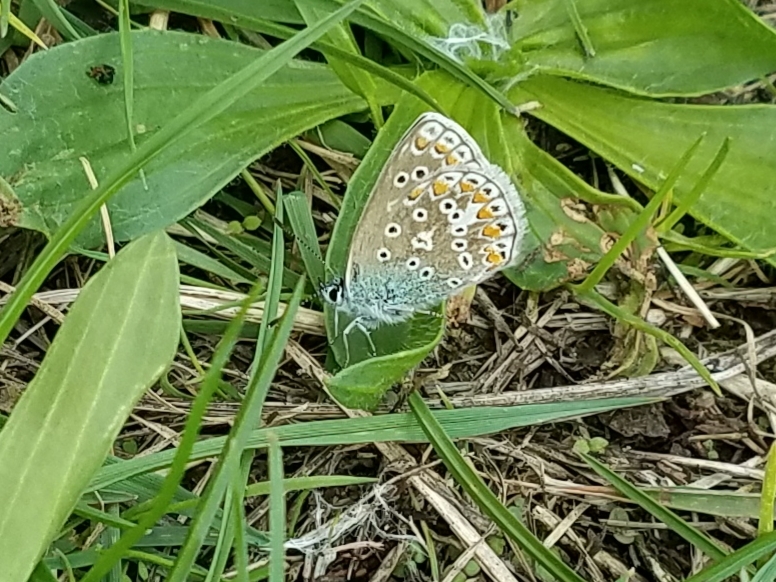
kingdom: Animalia
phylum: Arthropoda
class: Insecta
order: Lepidoptera
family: Lycaenidae
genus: Polyommatus
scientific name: Polyommatus icarus
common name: Common blue
